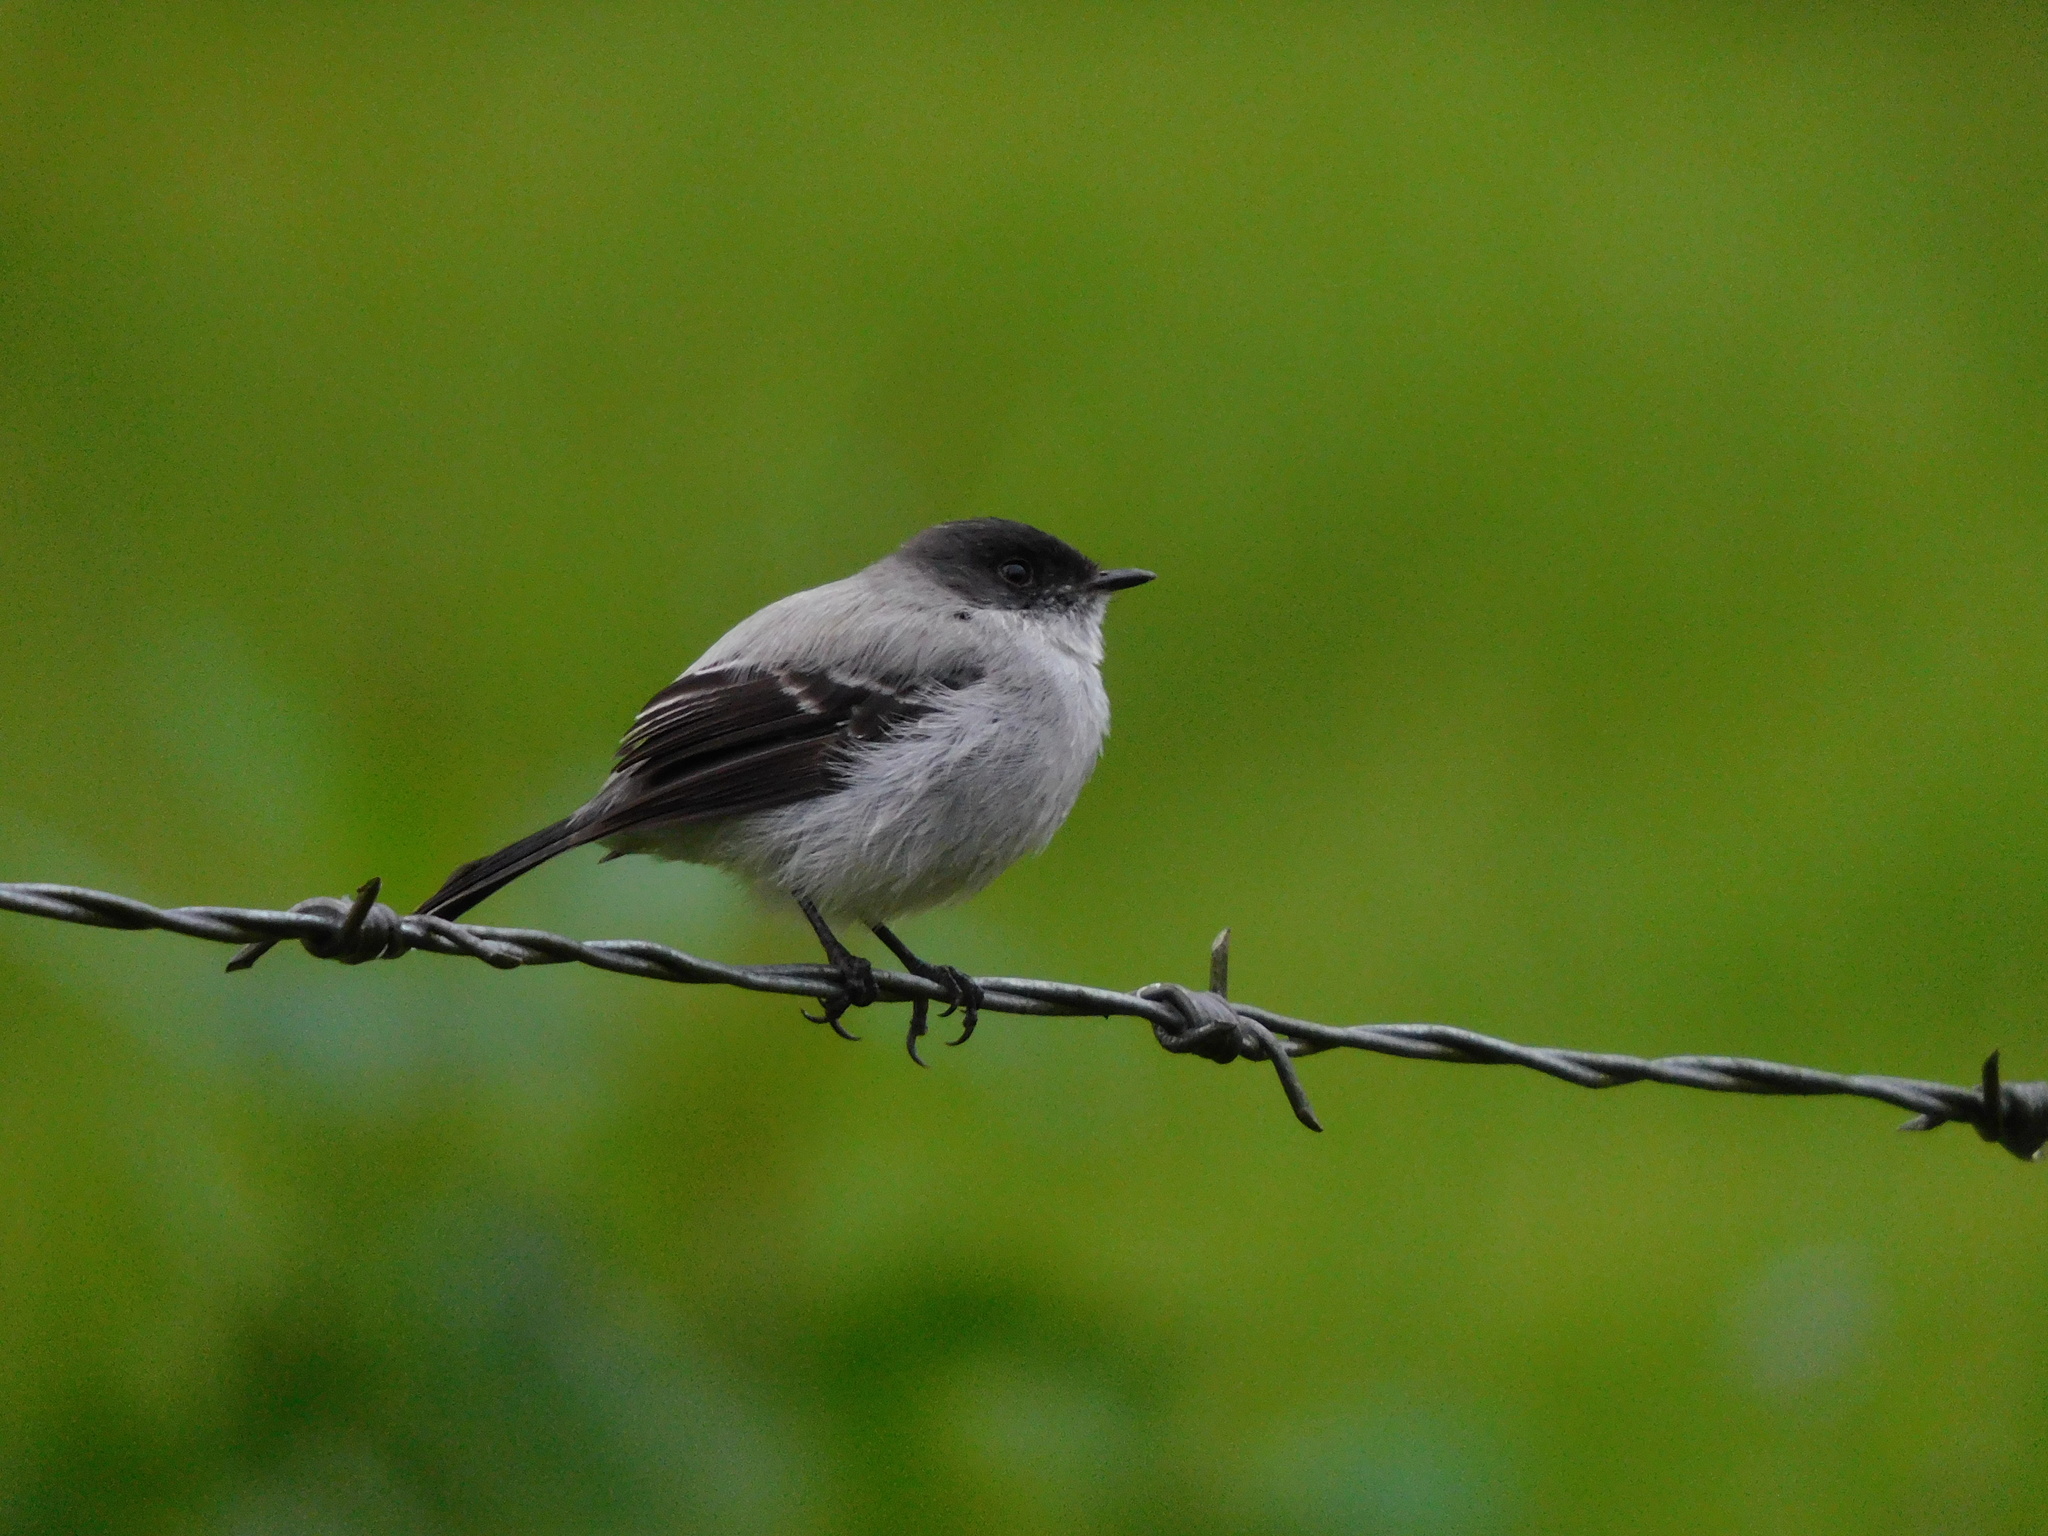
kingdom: Animalia
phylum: Chordata
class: Aves
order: Passeriformes
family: Tyrannidae
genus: Serpophaga
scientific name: Serpophaga cinerea
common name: Torrent tyrannulet
